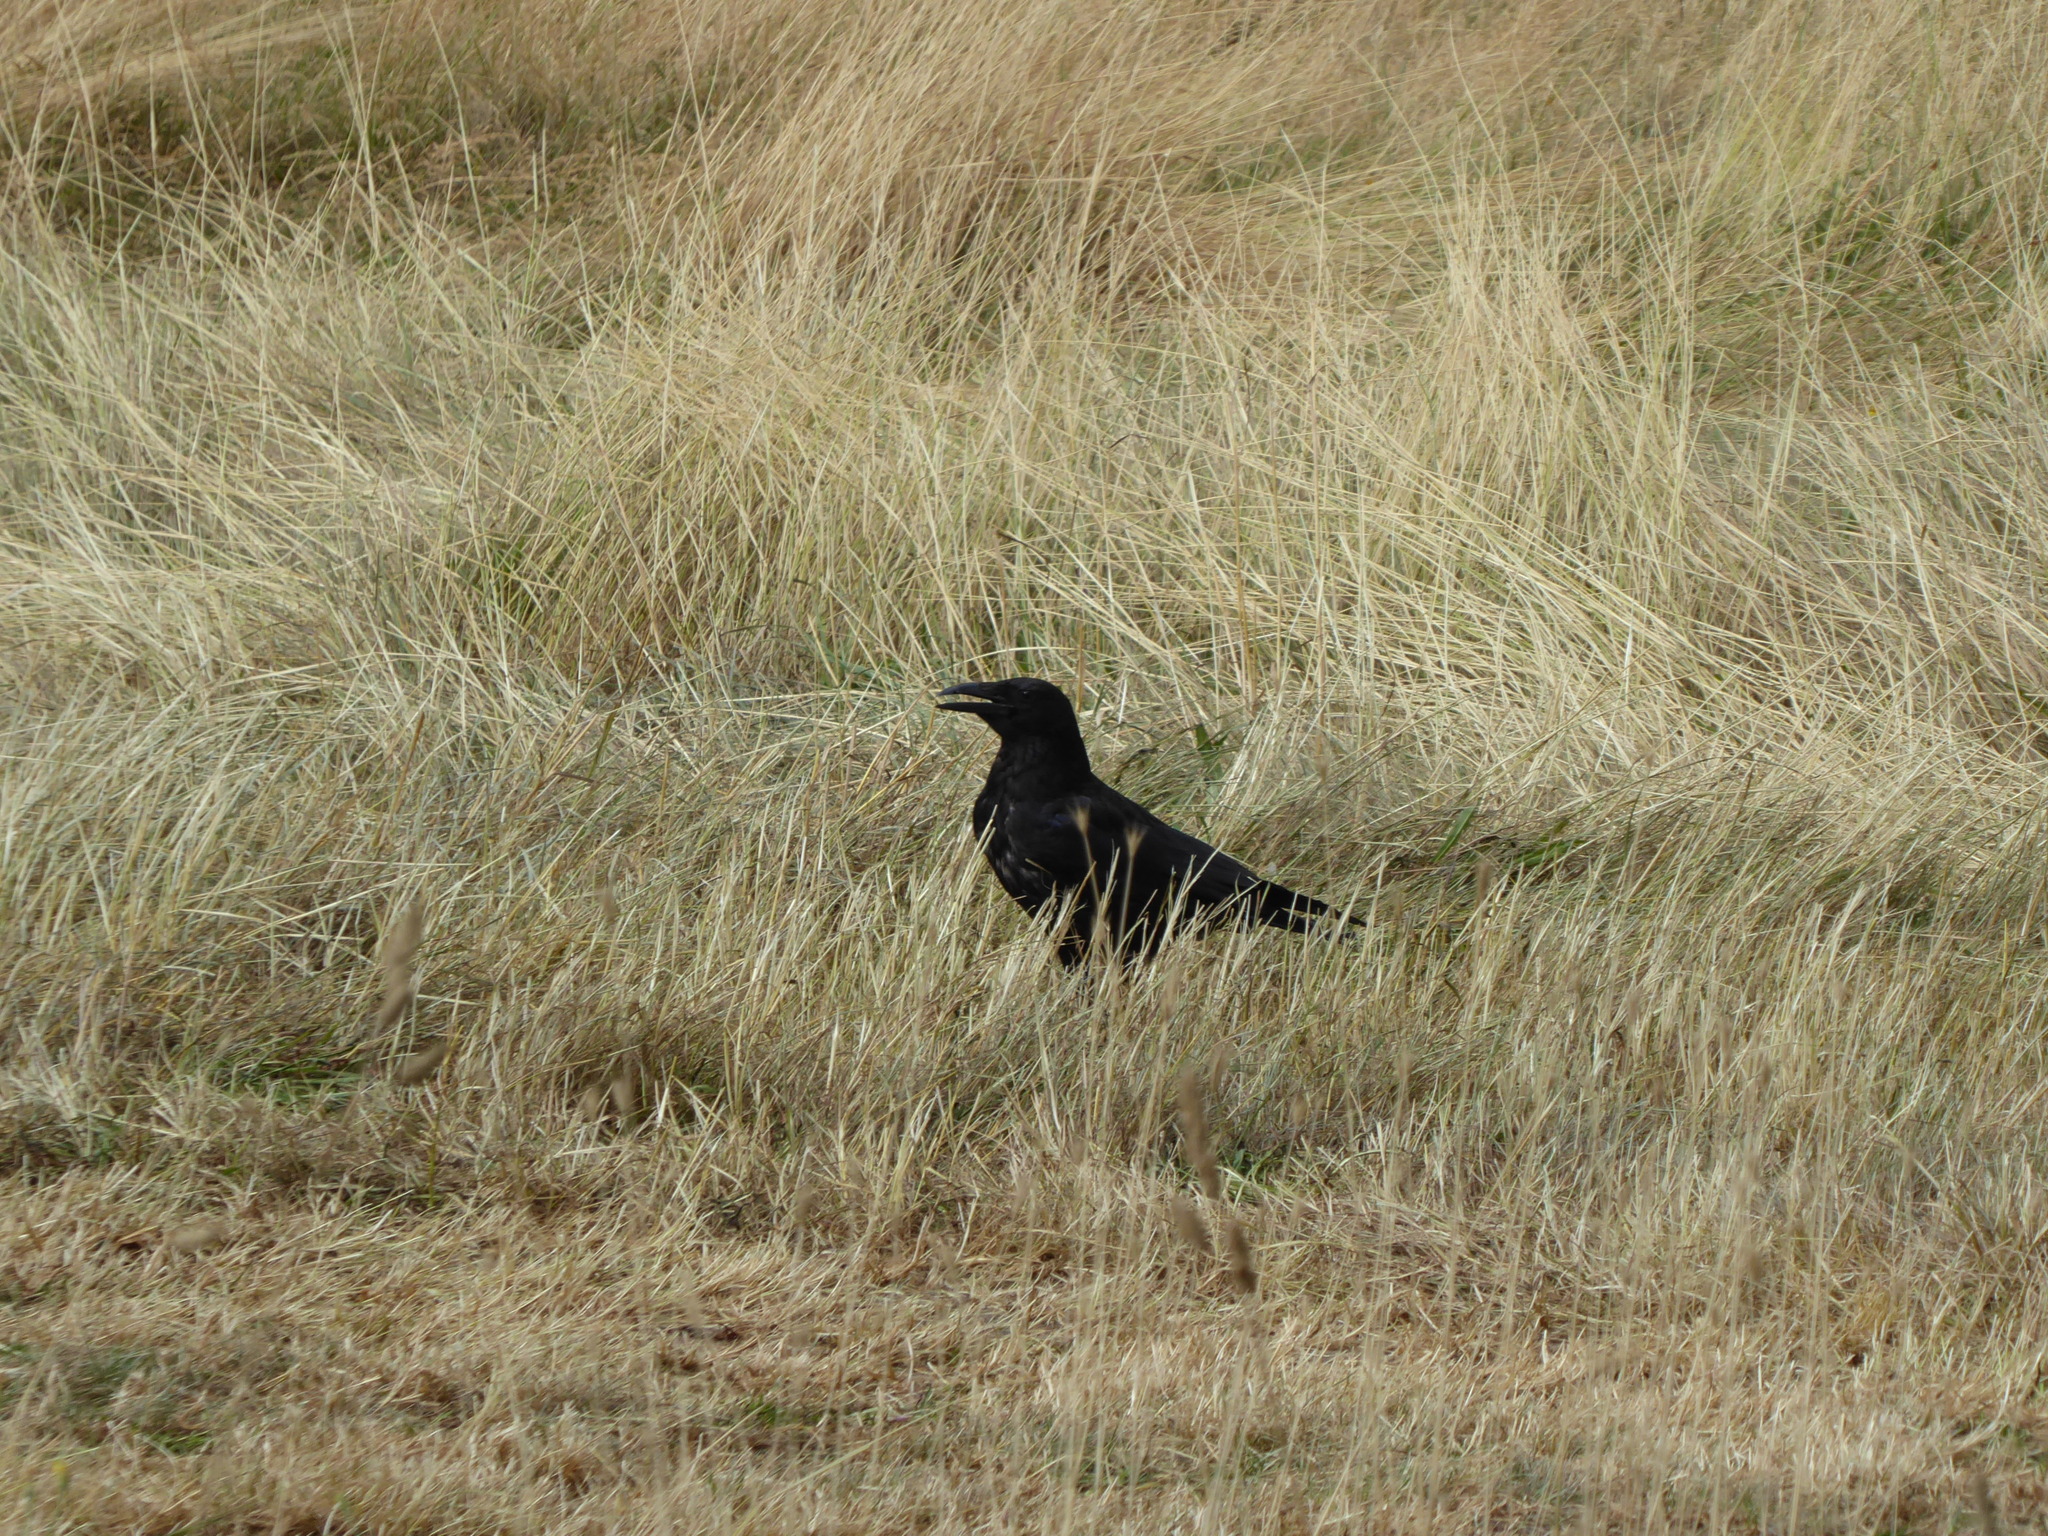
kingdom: Animalia
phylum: Chordata
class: Aves
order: Passeriformes
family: Corvidae
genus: Corvus
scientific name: Corvus corone
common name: Carrion crow
